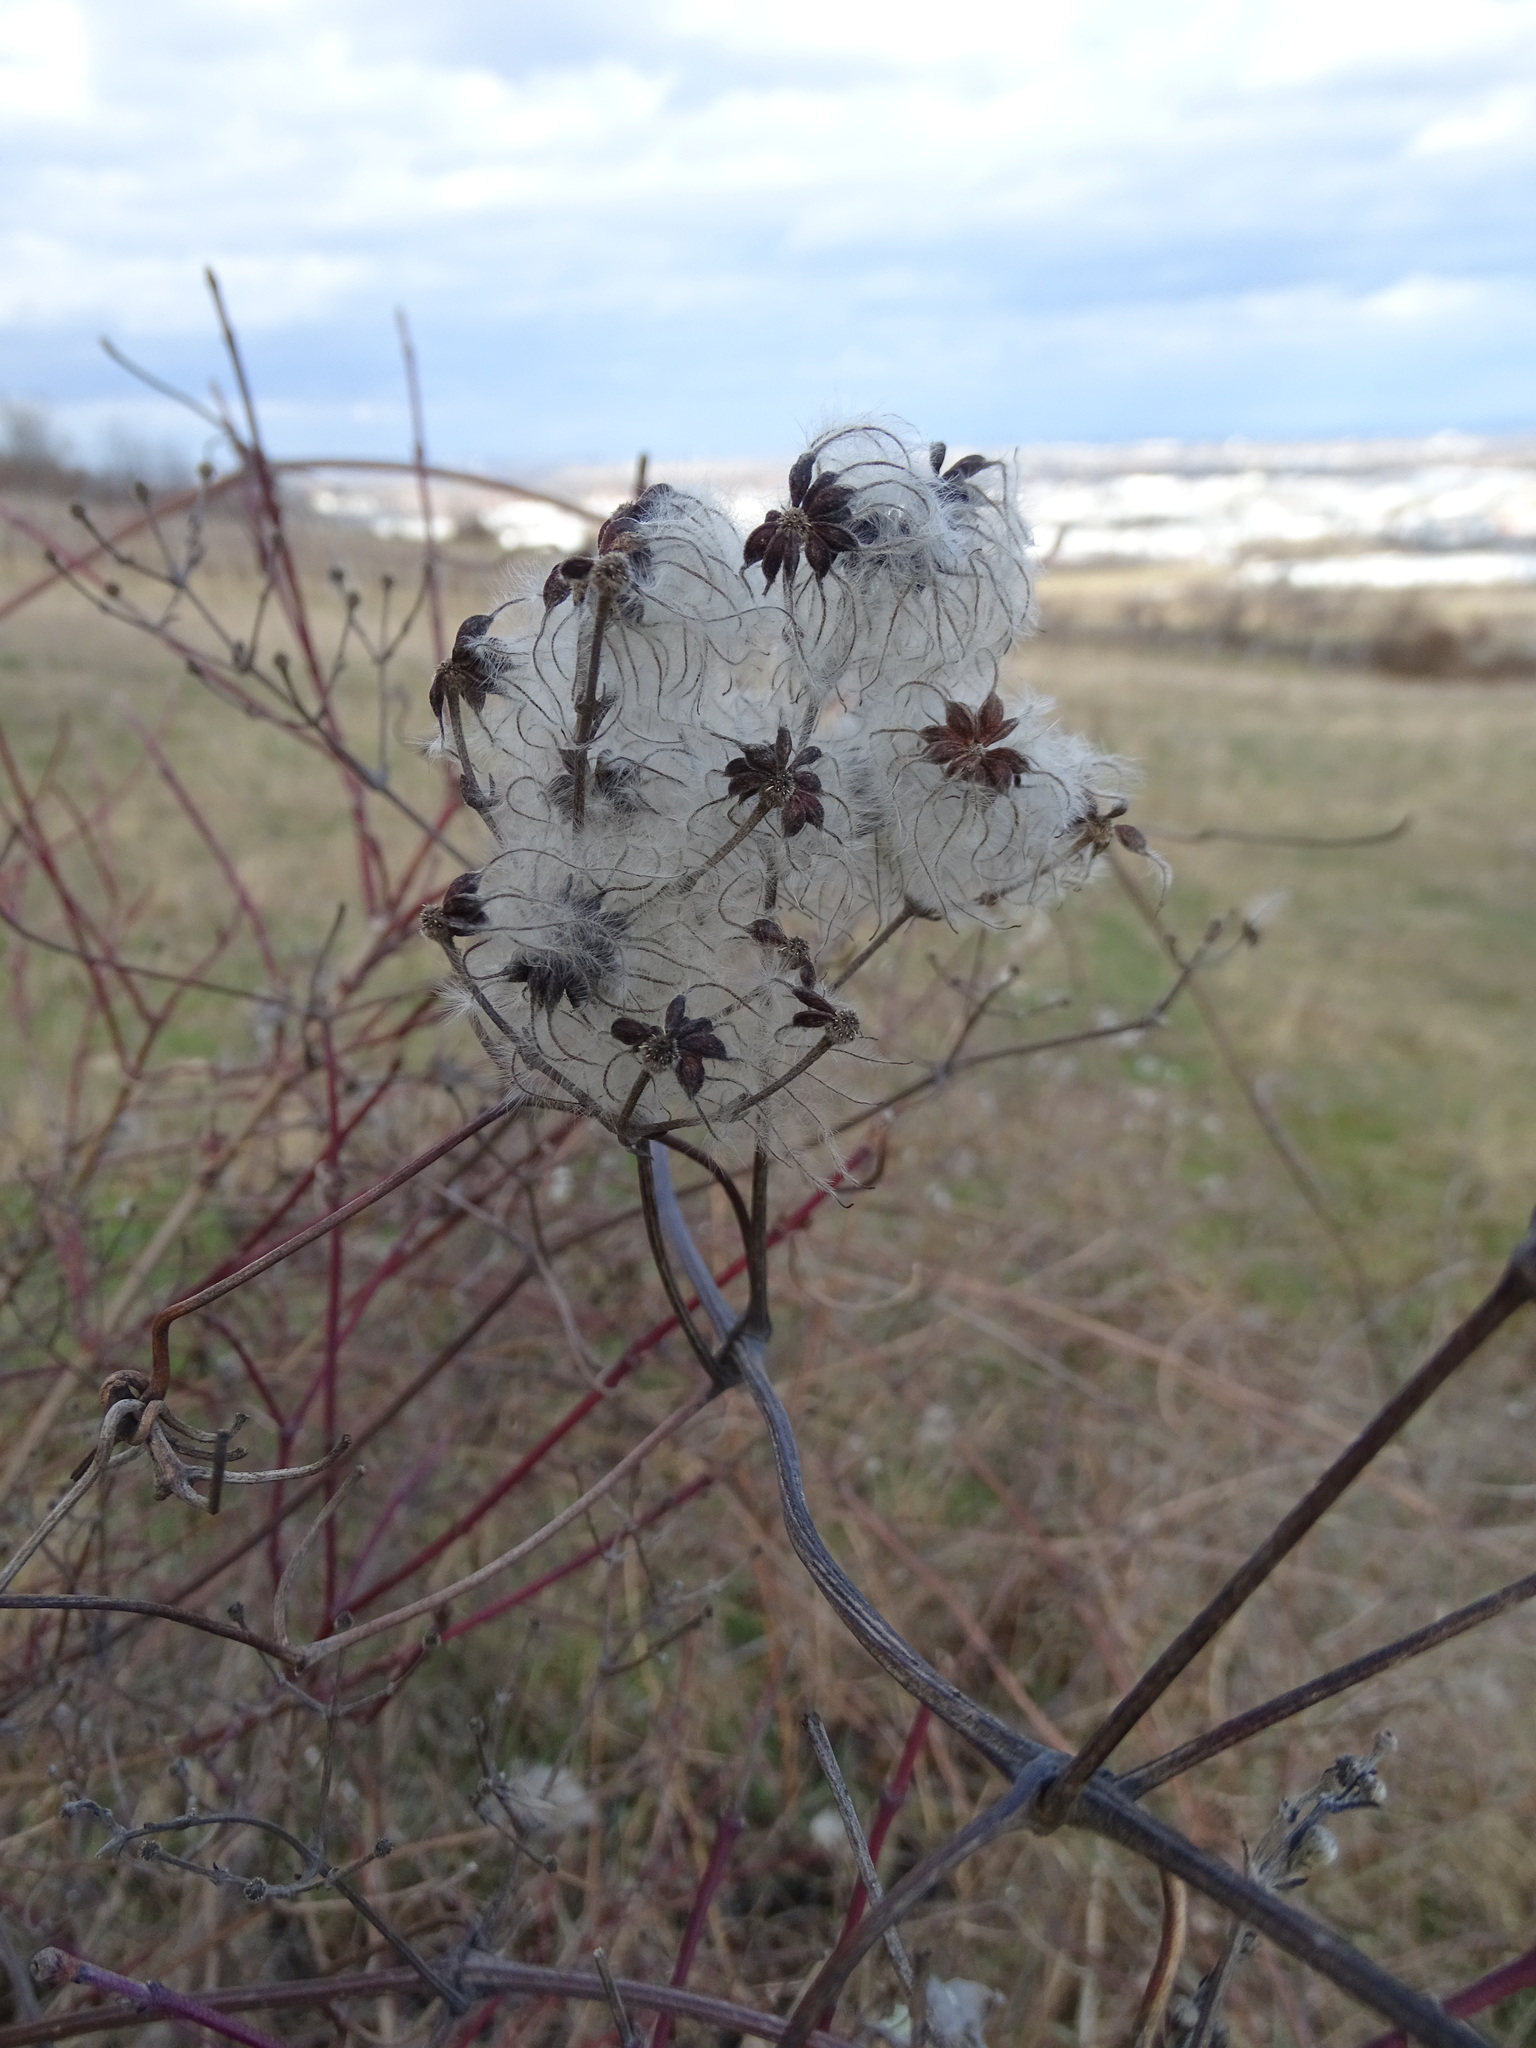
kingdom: Plantae
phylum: Tracheophyta
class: Magnoliopsida
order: Ranunculales
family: Ranunculaceae
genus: Clematis
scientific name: Clematis vitalba
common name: Evergreen clematis
